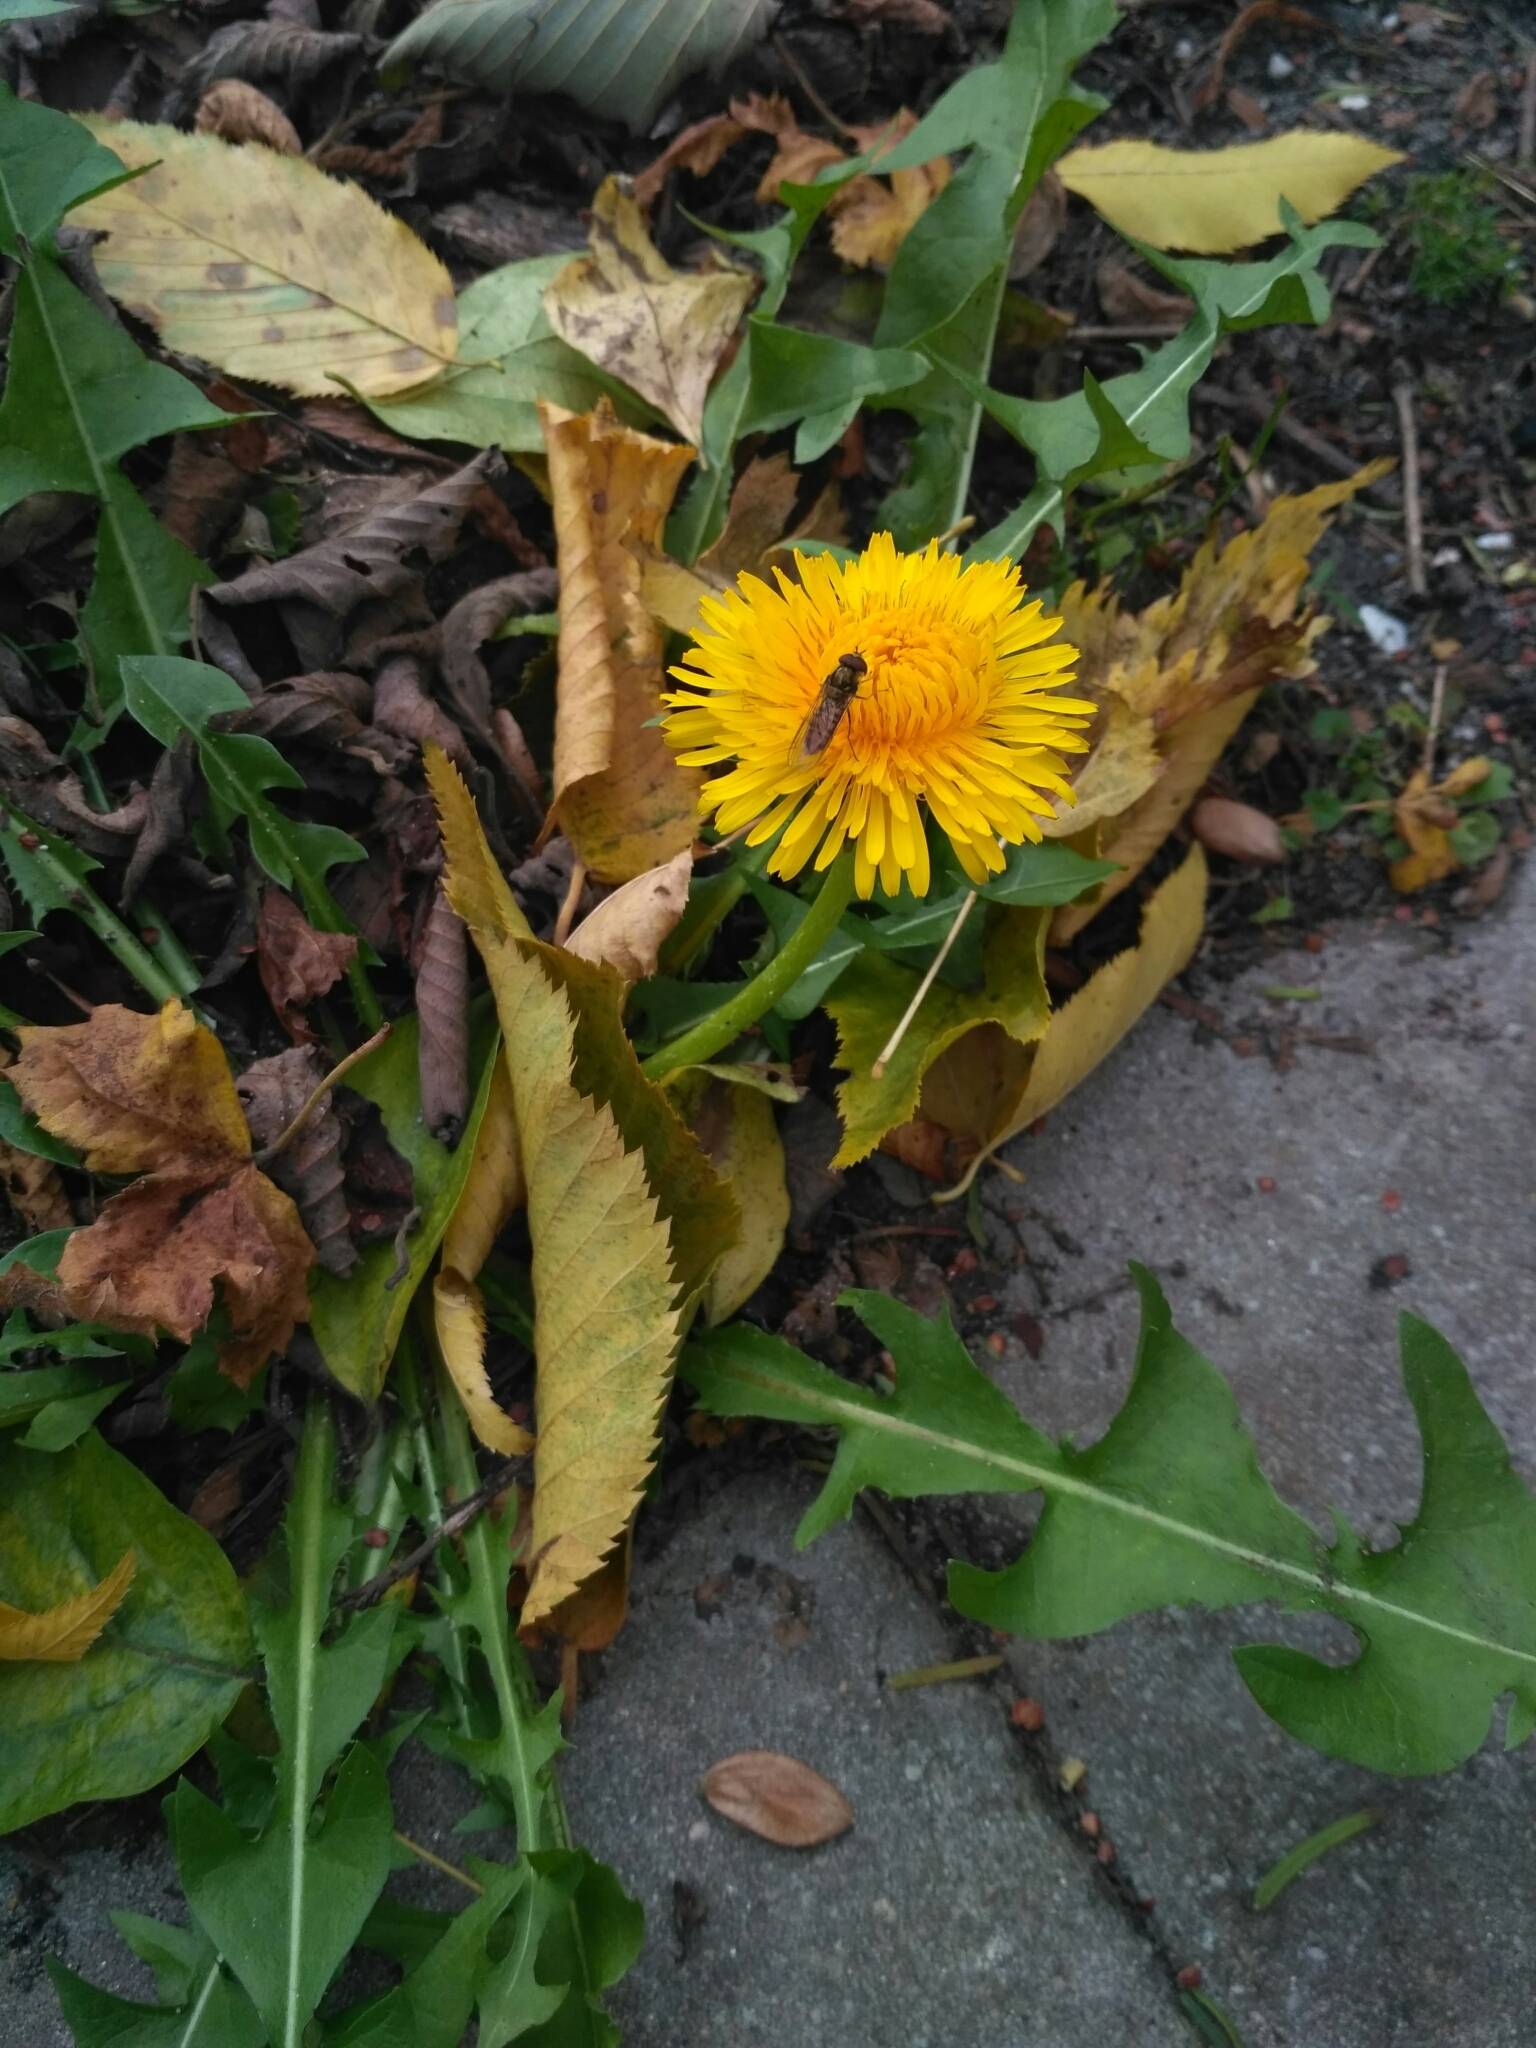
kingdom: Plantae
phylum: Tracheophyta
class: Magnoliopsida
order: Asterales
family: Asteraceae
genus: Taraxacum
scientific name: Taraxacum officinale
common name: Common dandelion
